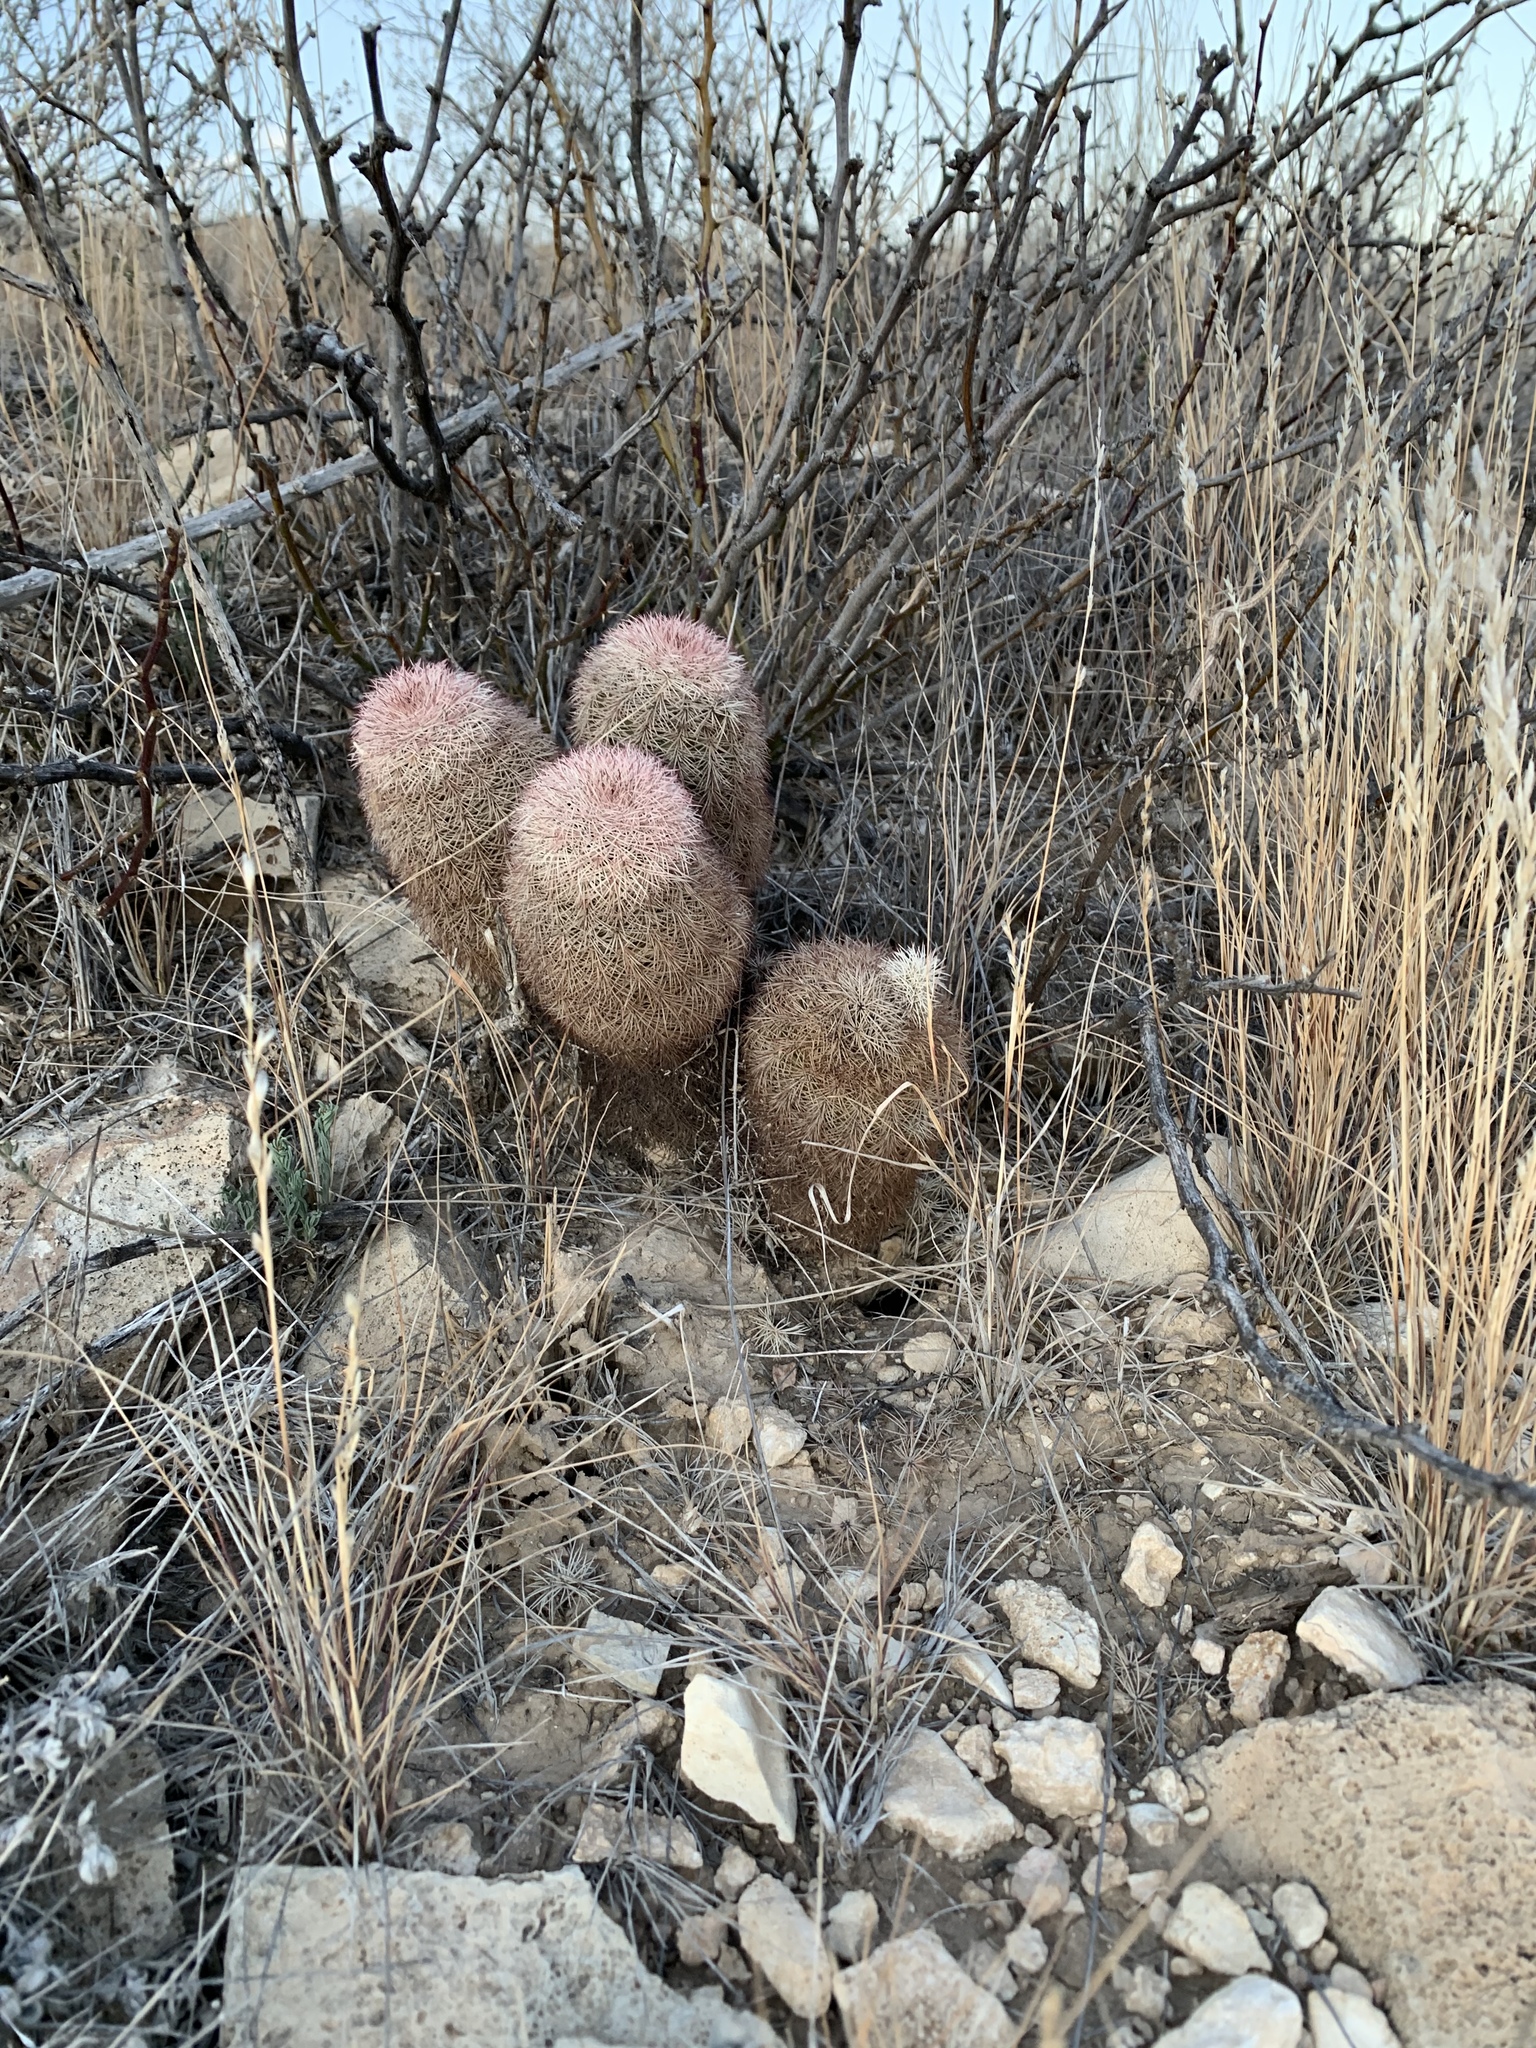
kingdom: Plantae
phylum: Tracheophyta
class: Magnoliopsida
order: Caryophyllales
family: Cactaceae
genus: Echinocereus
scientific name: Echinocereus dasyacanthus
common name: Spiny hedgehog cactus
